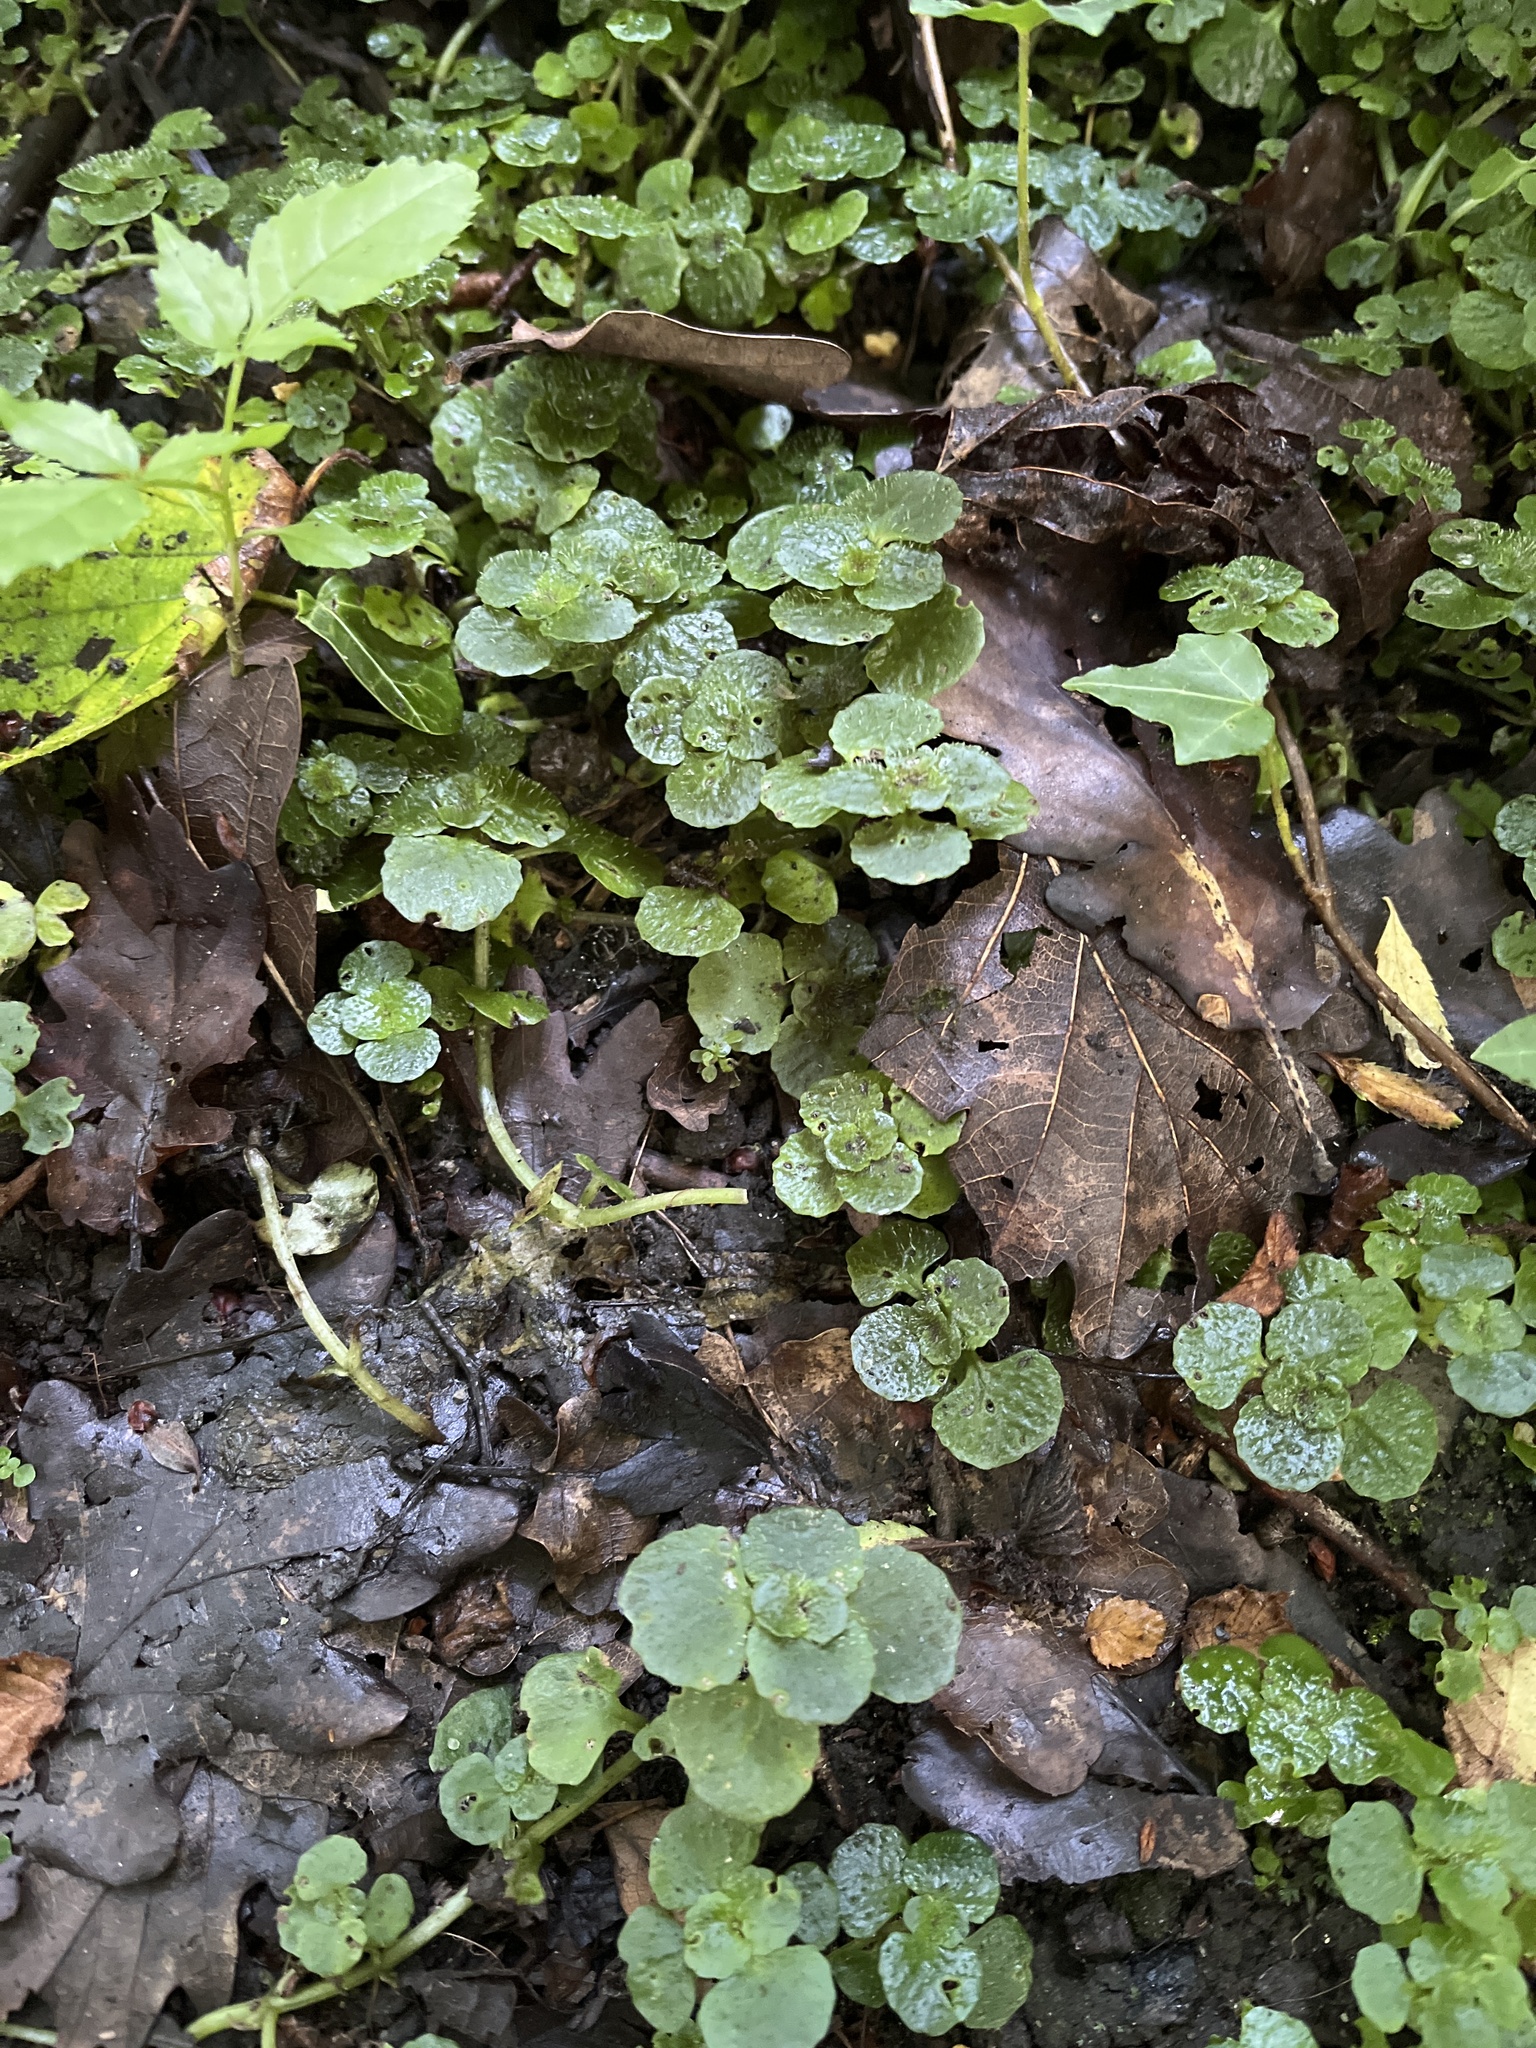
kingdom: Plantae
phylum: Tracheophyta
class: Magnoliopsida
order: Saxifragales
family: Saxifragaceae
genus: Chrysosplenium
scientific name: Chrysosplenium oppositifolium
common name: Opposite-leaved golden-saxifrage
